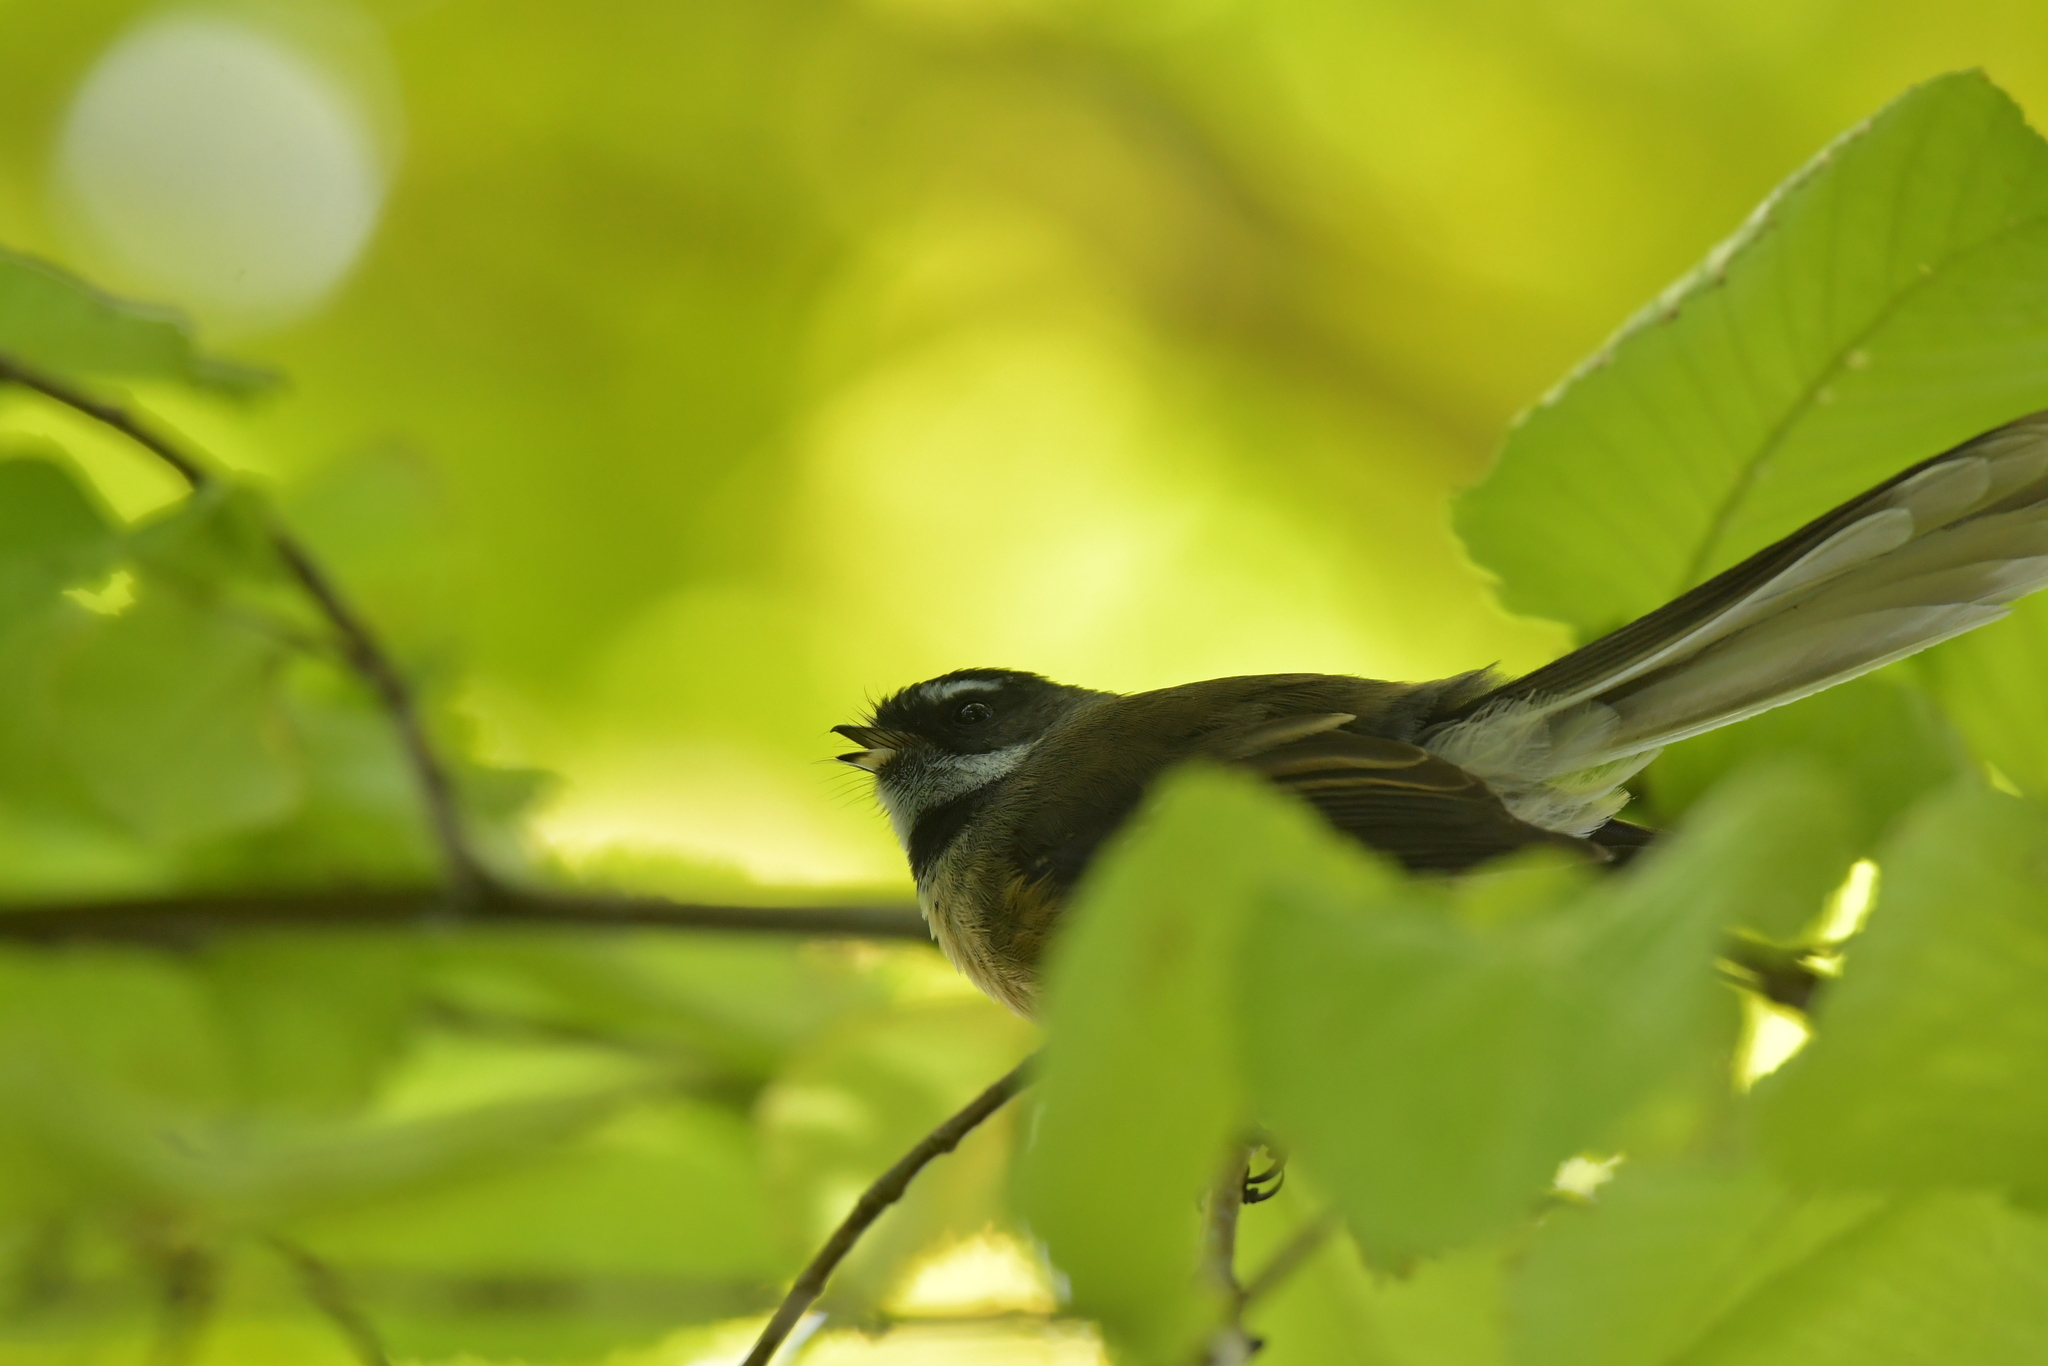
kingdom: Animalia
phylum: Chordata
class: Aves
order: Passeriformes
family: Rhipiduridae
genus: Rhipidura
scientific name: Rhipidura fuliginosa
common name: New zealand fantail
